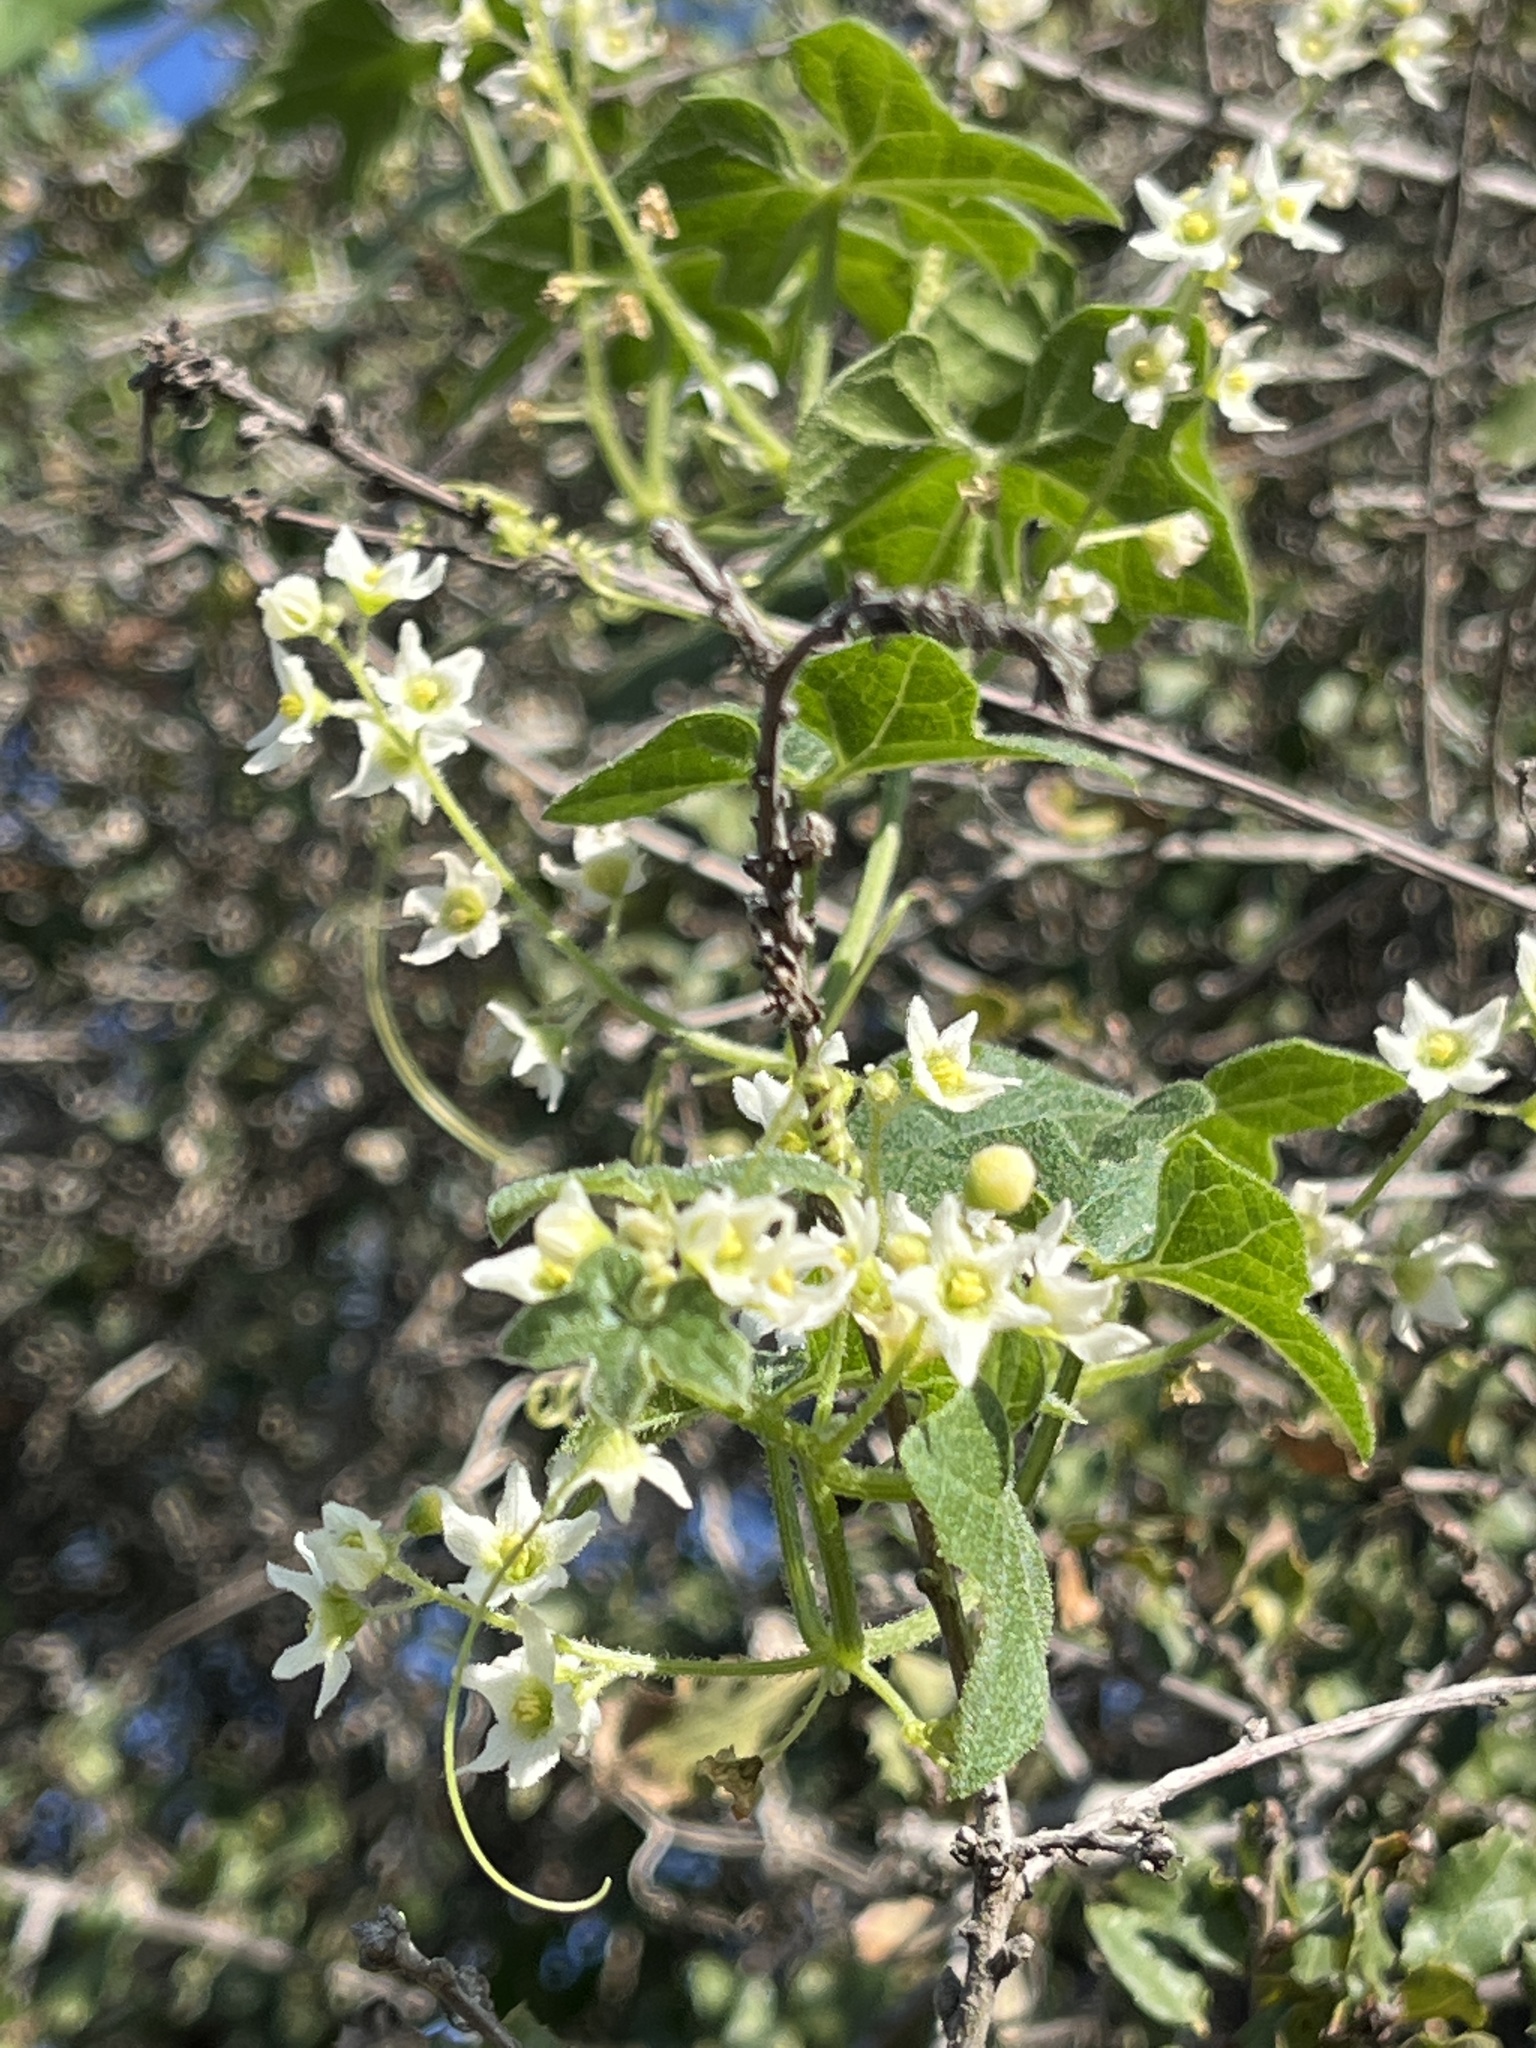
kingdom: Plantae
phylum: Tracheophyta
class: Magnoliopsida
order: Cucurbitales
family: Cucurbitaceae
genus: Marah
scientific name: Marah macrocarpa
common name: Cucamonga manroot
